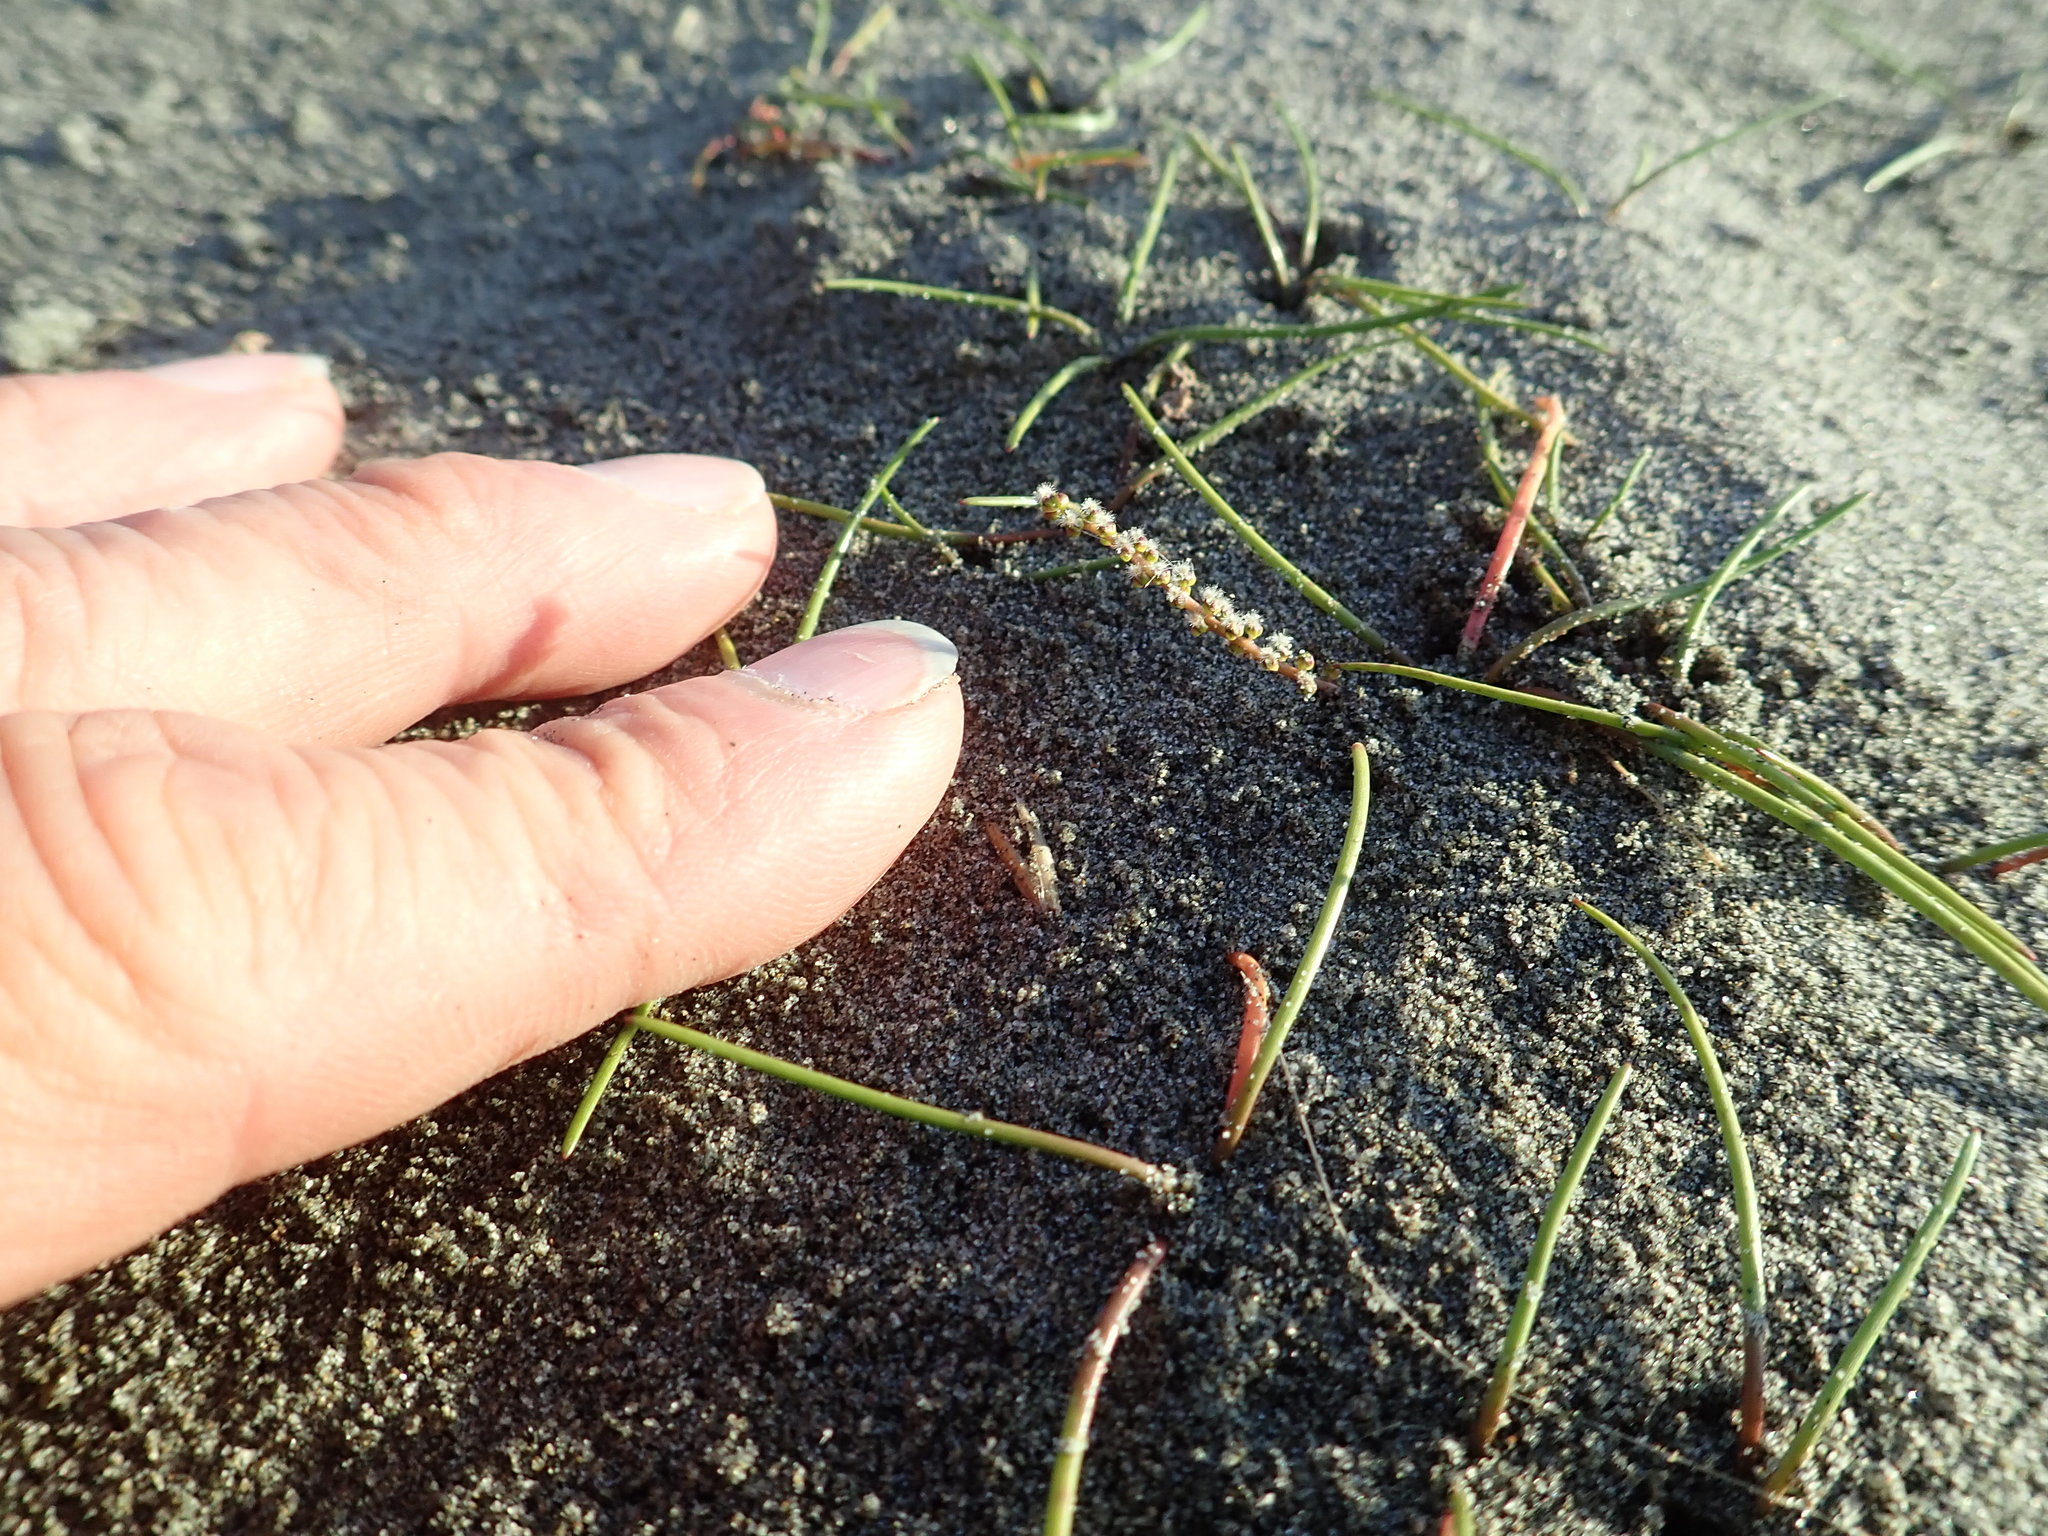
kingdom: Plantae
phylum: Tracheophyta
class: Liliopsida
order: Alismatales
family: Juncaginaceae
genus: Triglochin
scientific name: Triglochin striata
